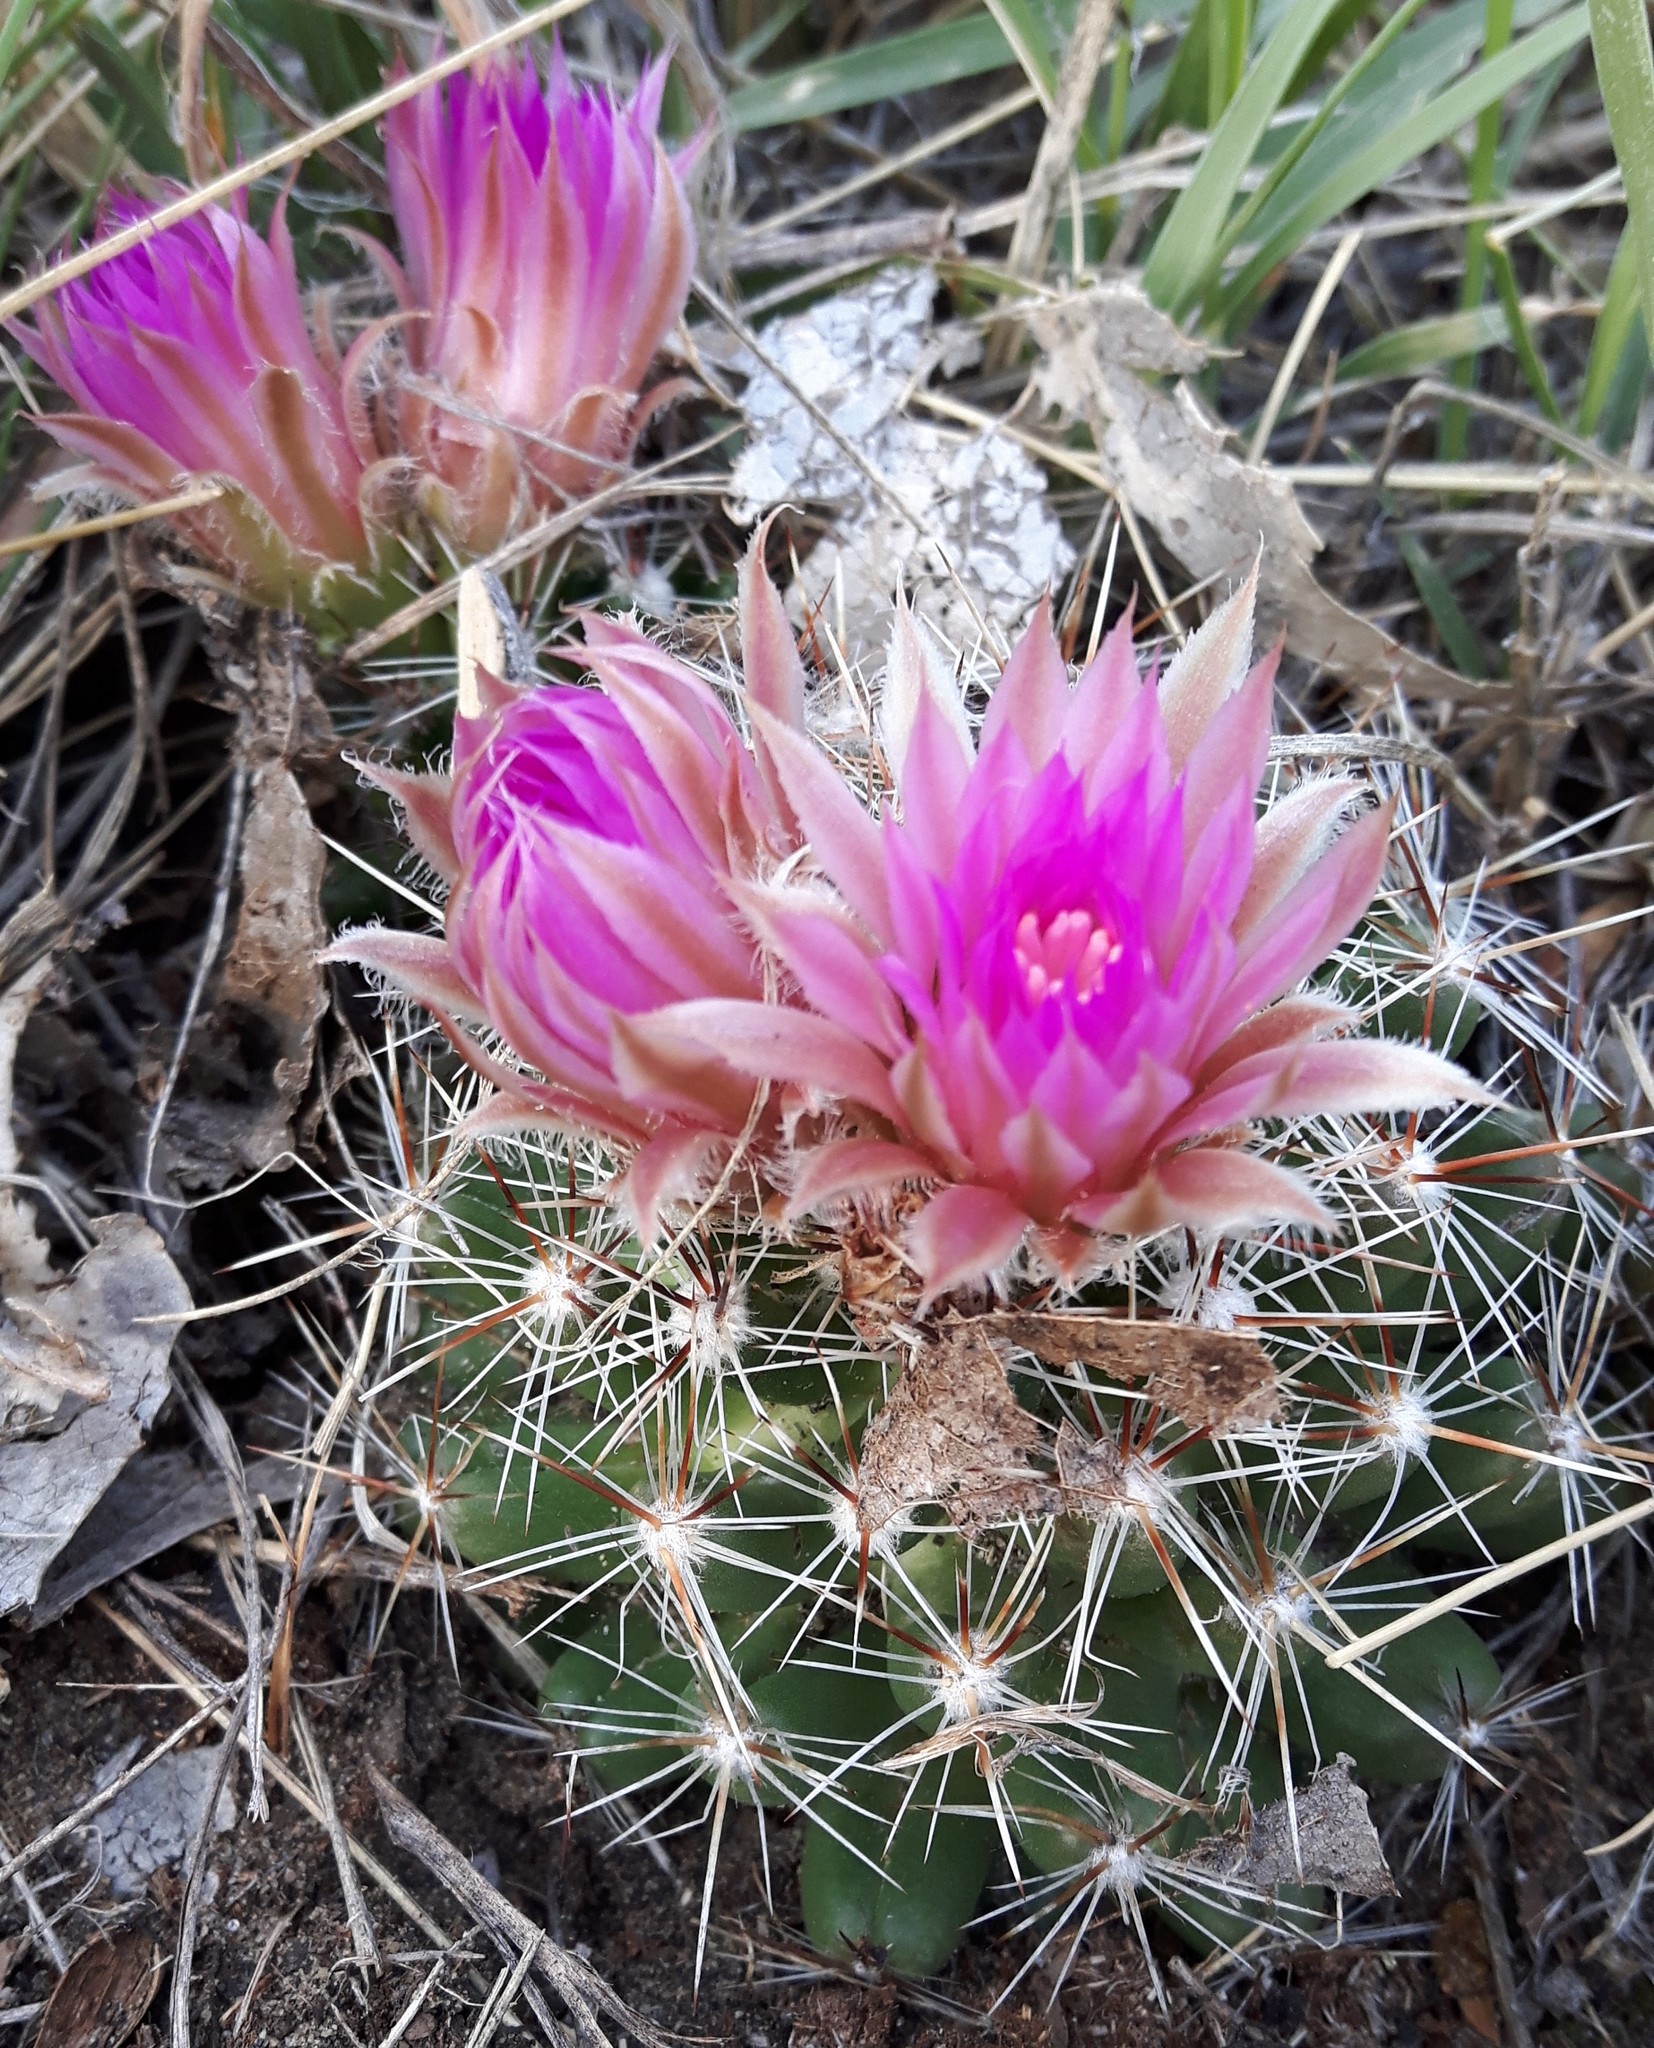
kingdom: Plantae
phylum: Tracheophyta
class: Magnoliopsida
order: Caryophyllales
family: Cactaceae
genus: Pelecyphora
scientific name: Pelecyphora vivipara
